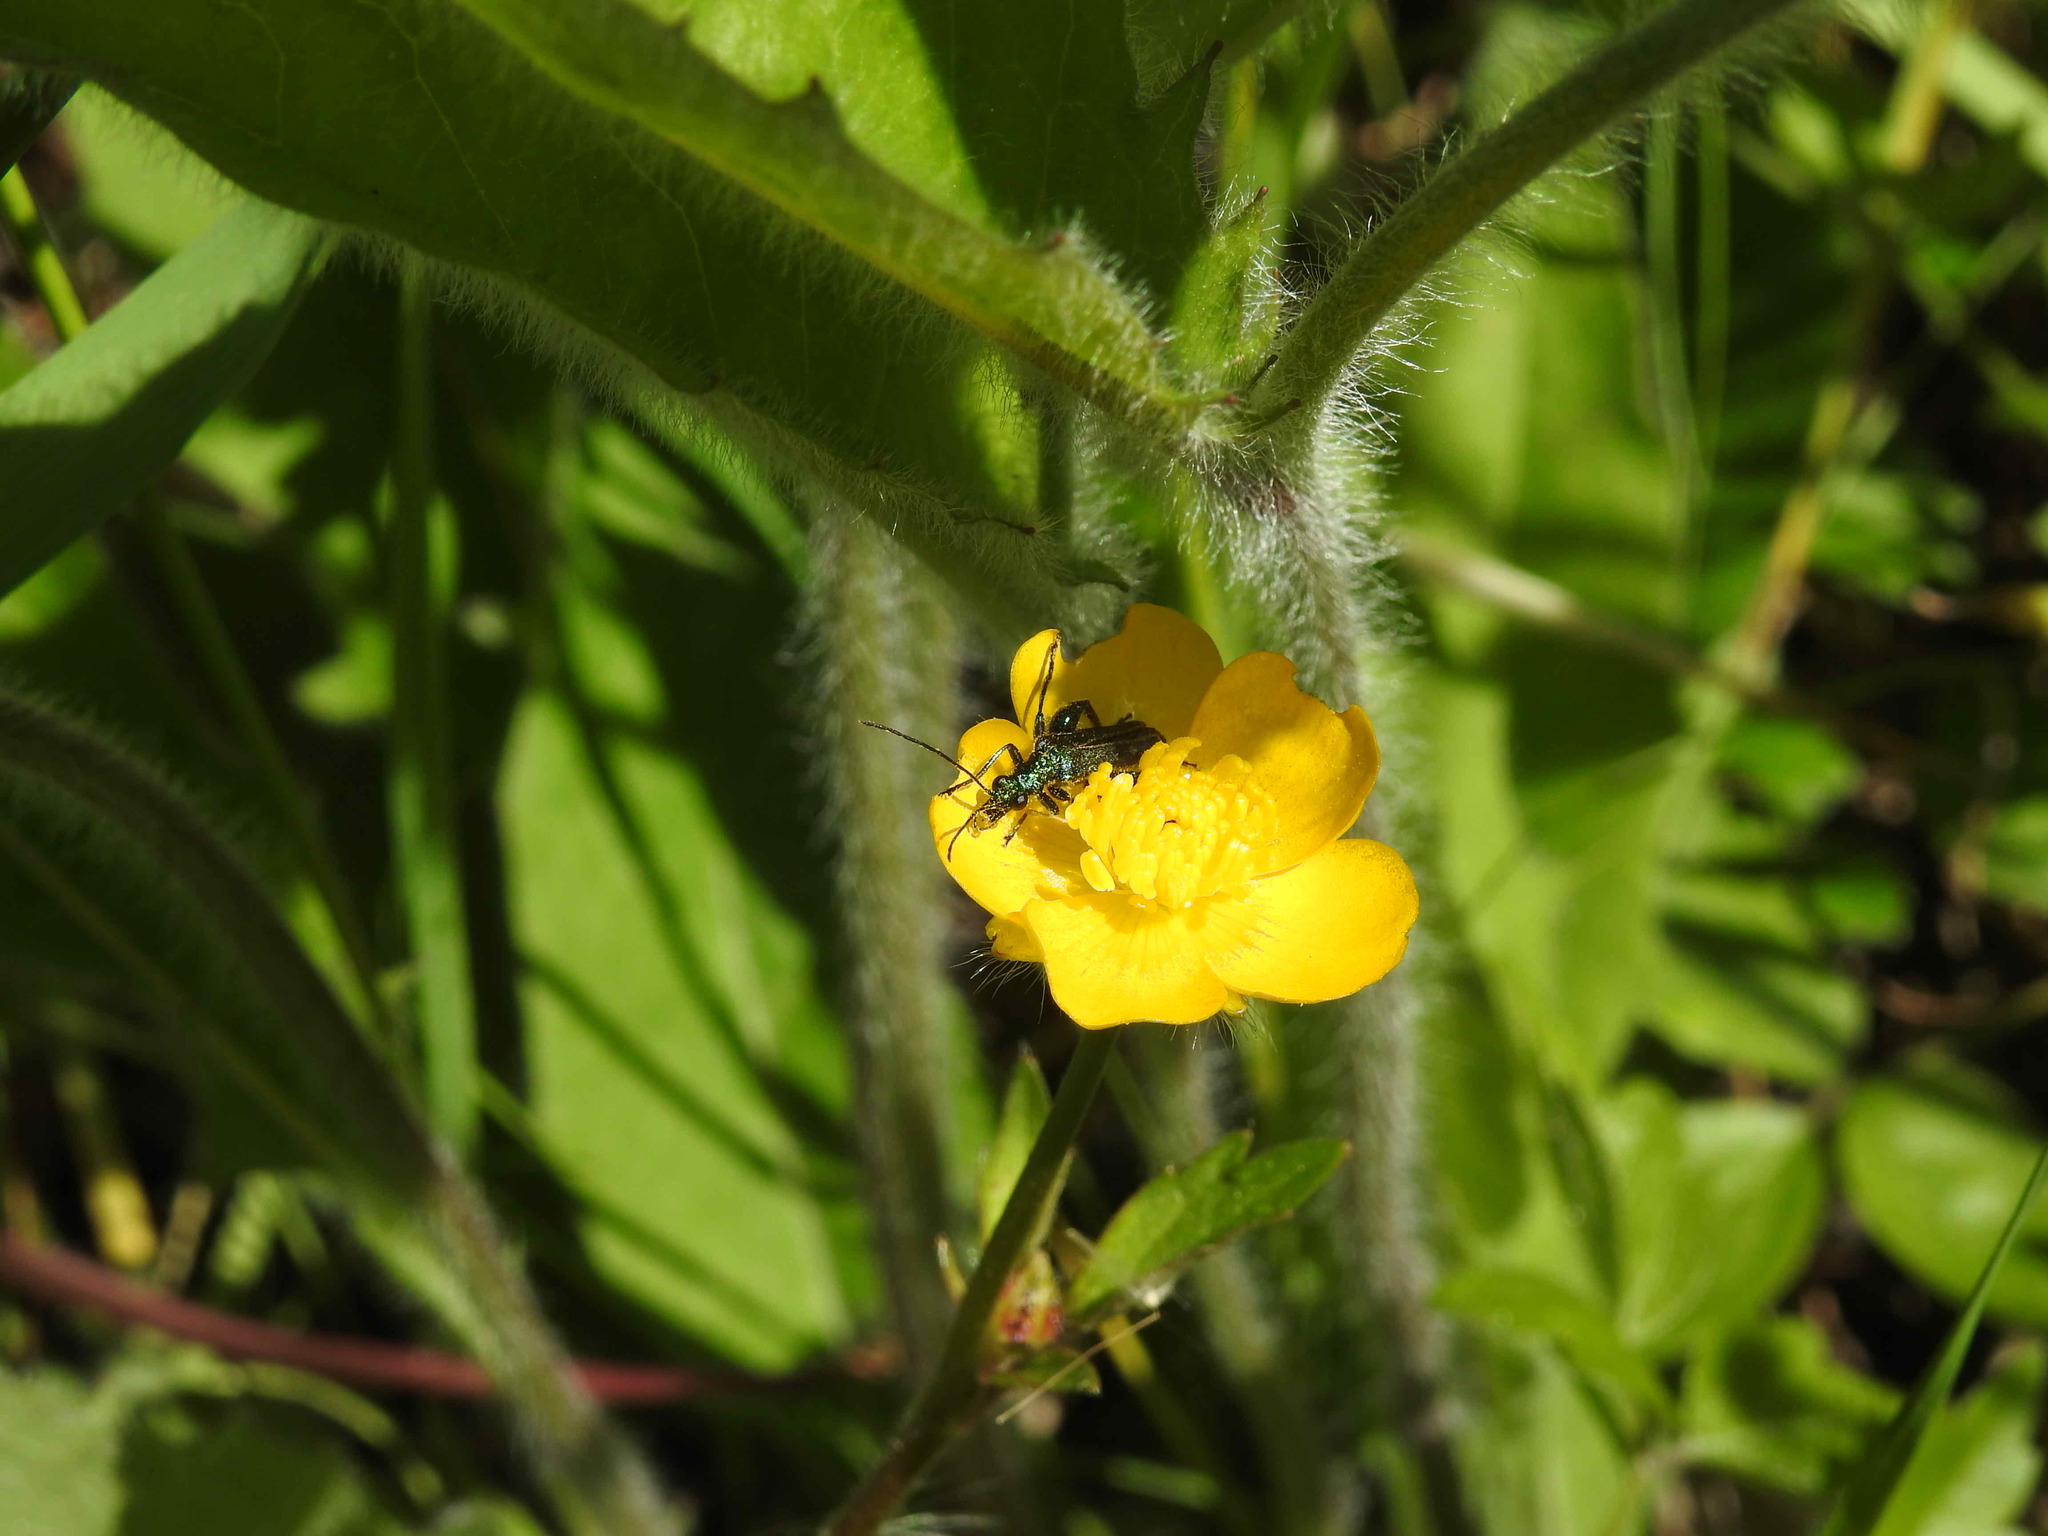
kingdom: Animalia
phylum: Arthropoda
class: Insecta
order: Coleoptera
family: Oedemeridae
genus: Oedemera
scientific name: Oedemera nobilis
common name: Swollen-thighed beetle
